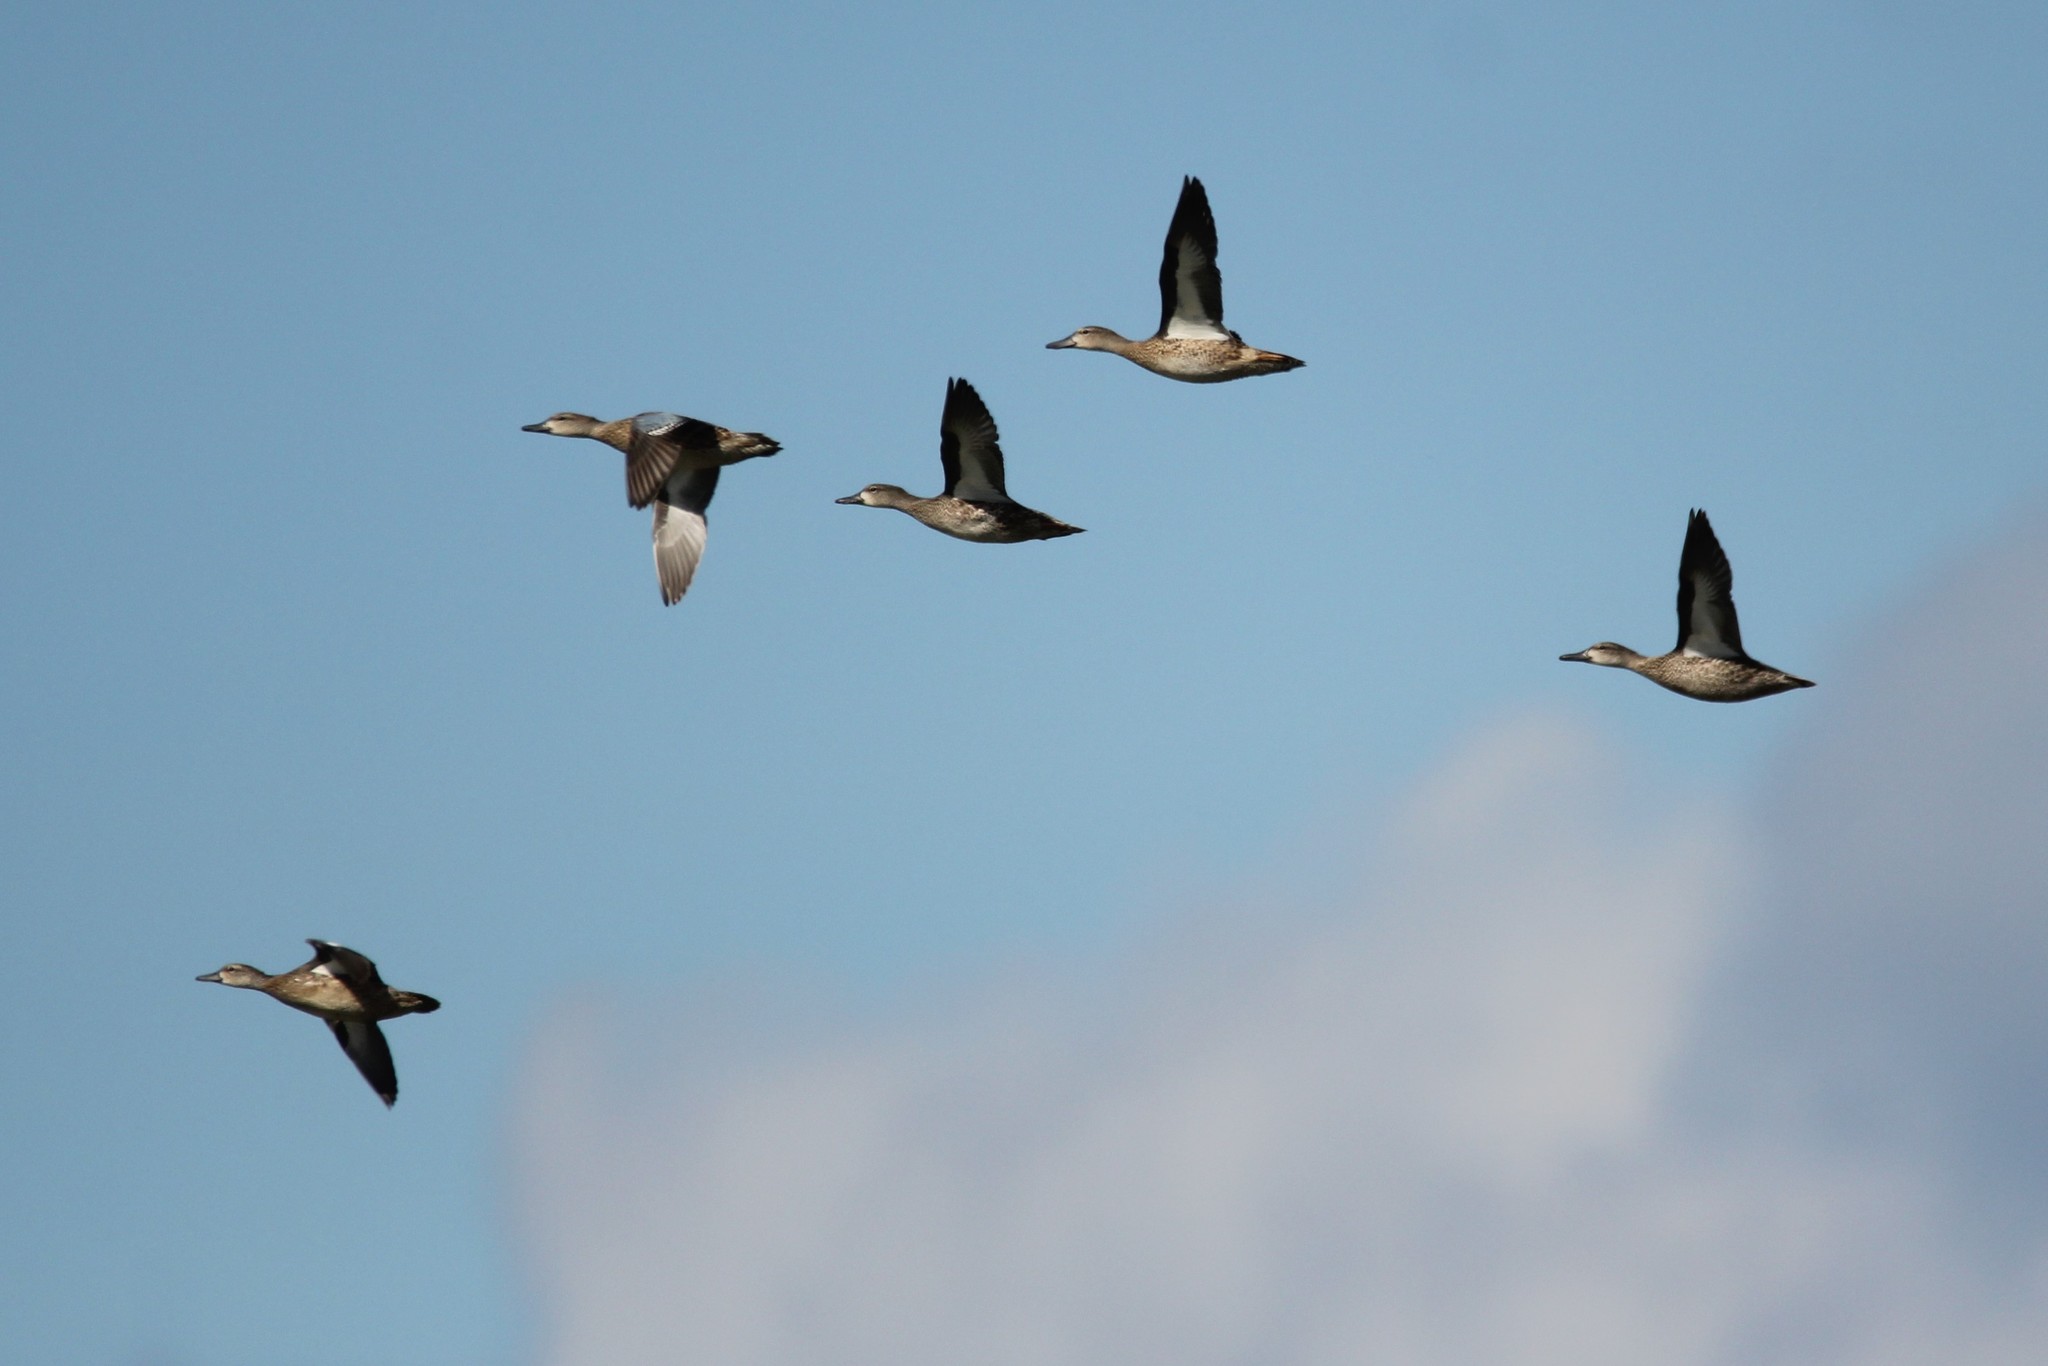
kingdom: Animalia
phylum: Chordata
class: Aves
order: Anseriformes
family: Anatidae
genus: Spatula
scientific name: Spatula discors
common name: Blue-winged teal
